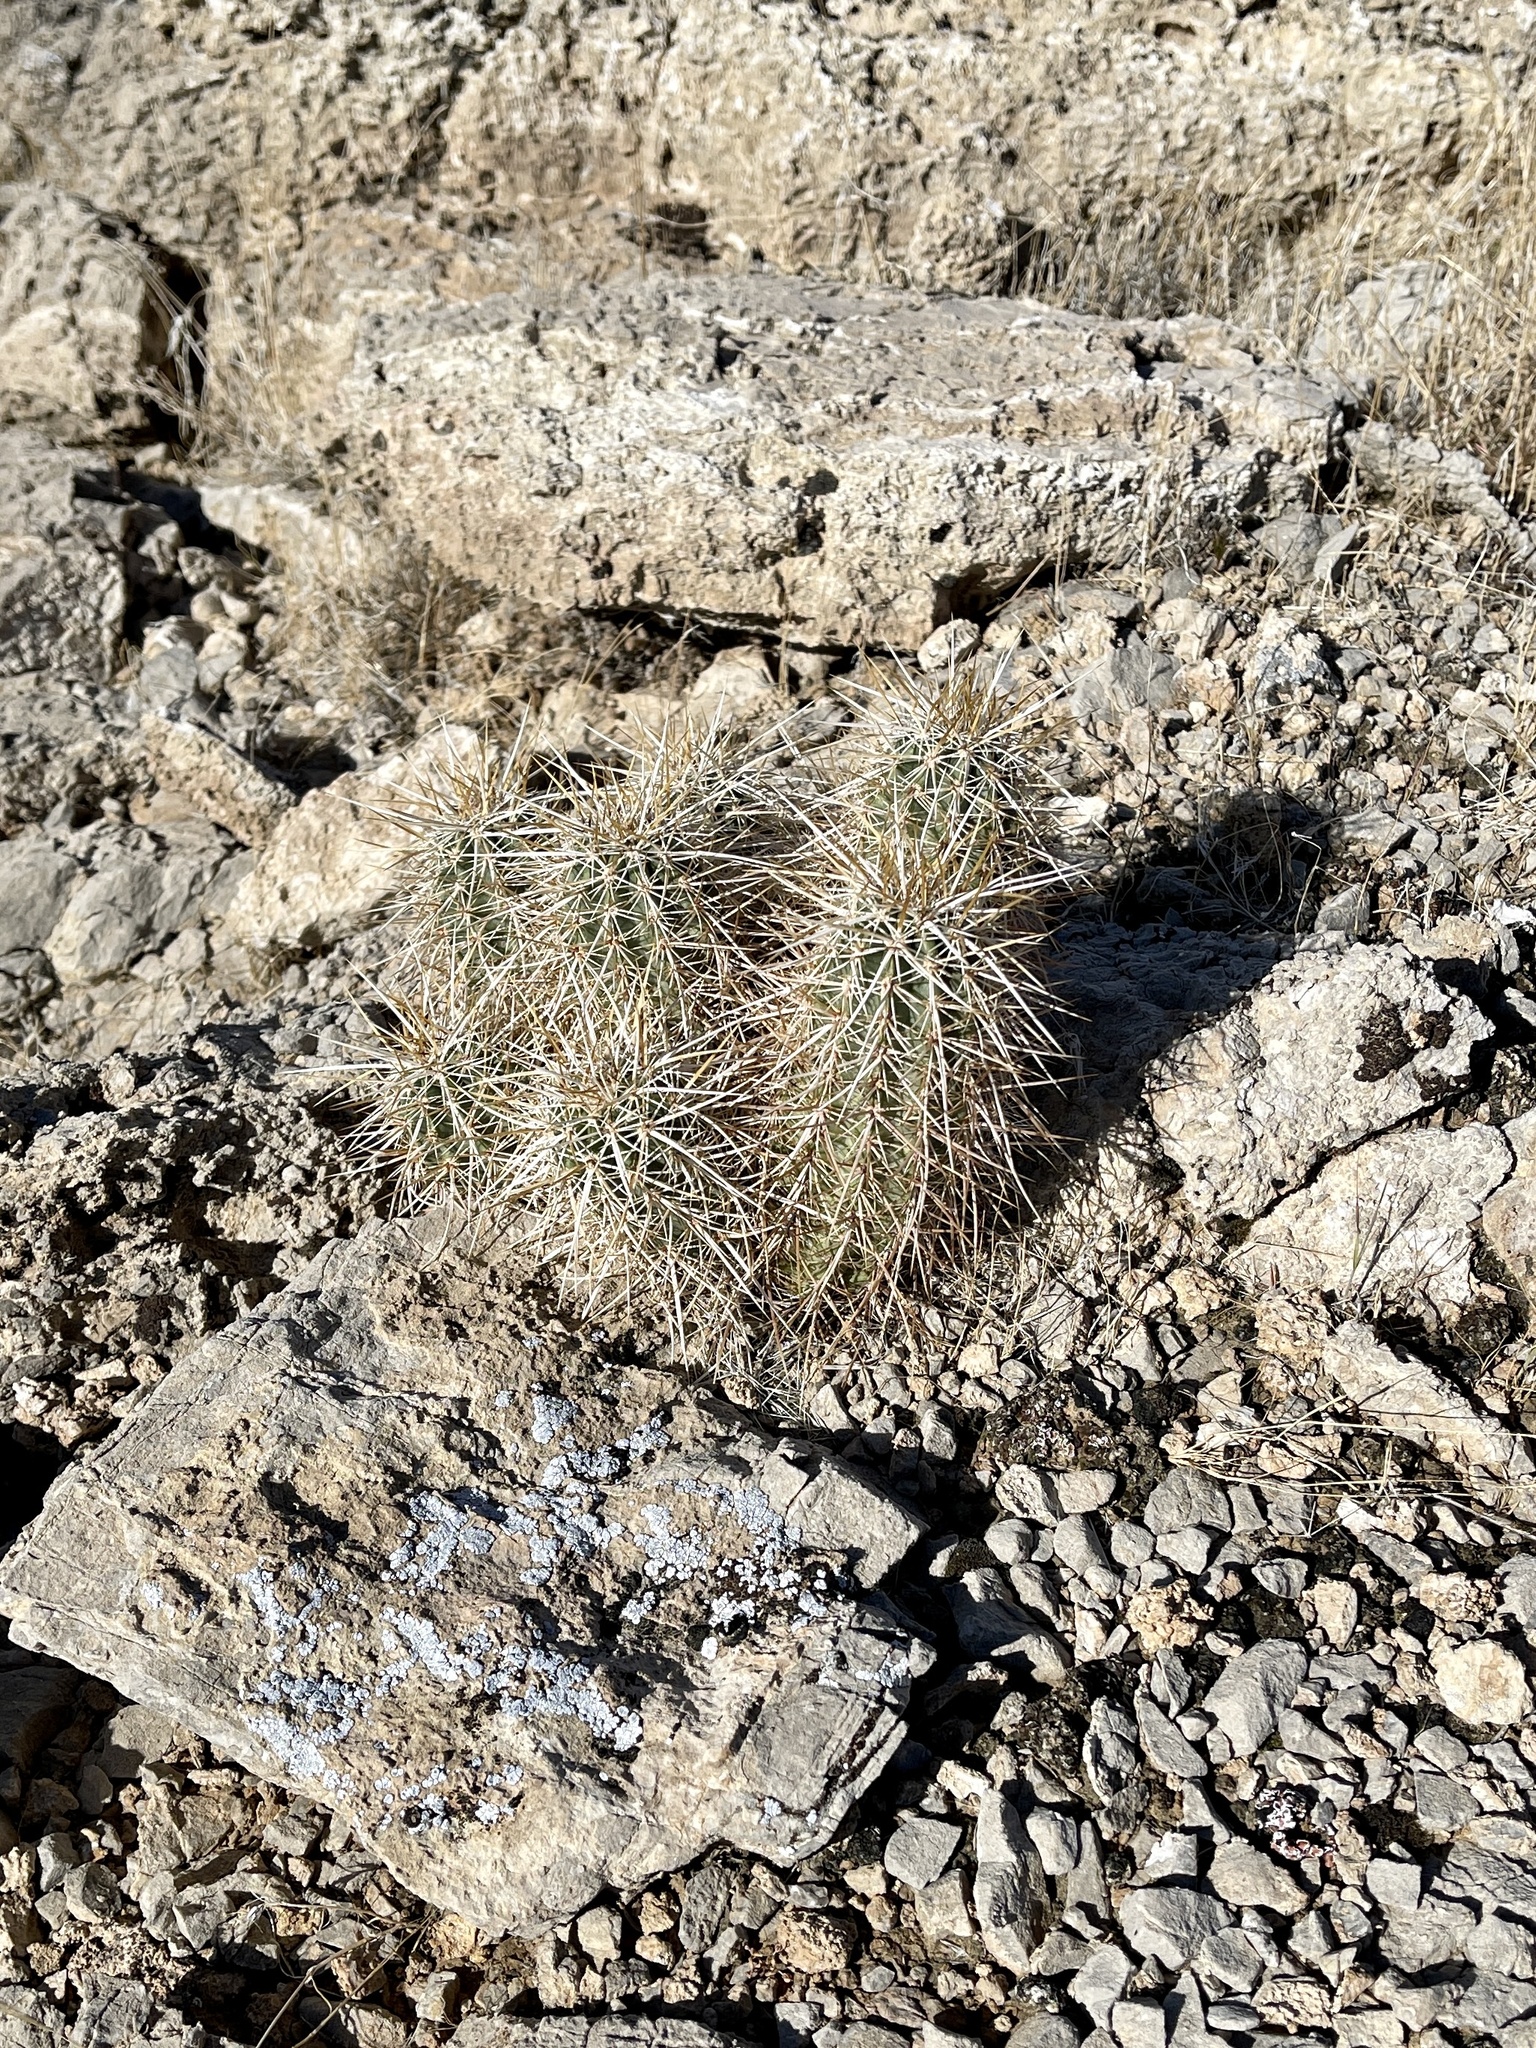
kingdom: Plantae
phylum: Tracheophyta
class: Magnoliopsida
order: Caryophyllales
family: Cactaceae
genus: Echinocereus
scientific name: Echinocereus engelmannii
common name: Engelmann's hedgehog cactus
